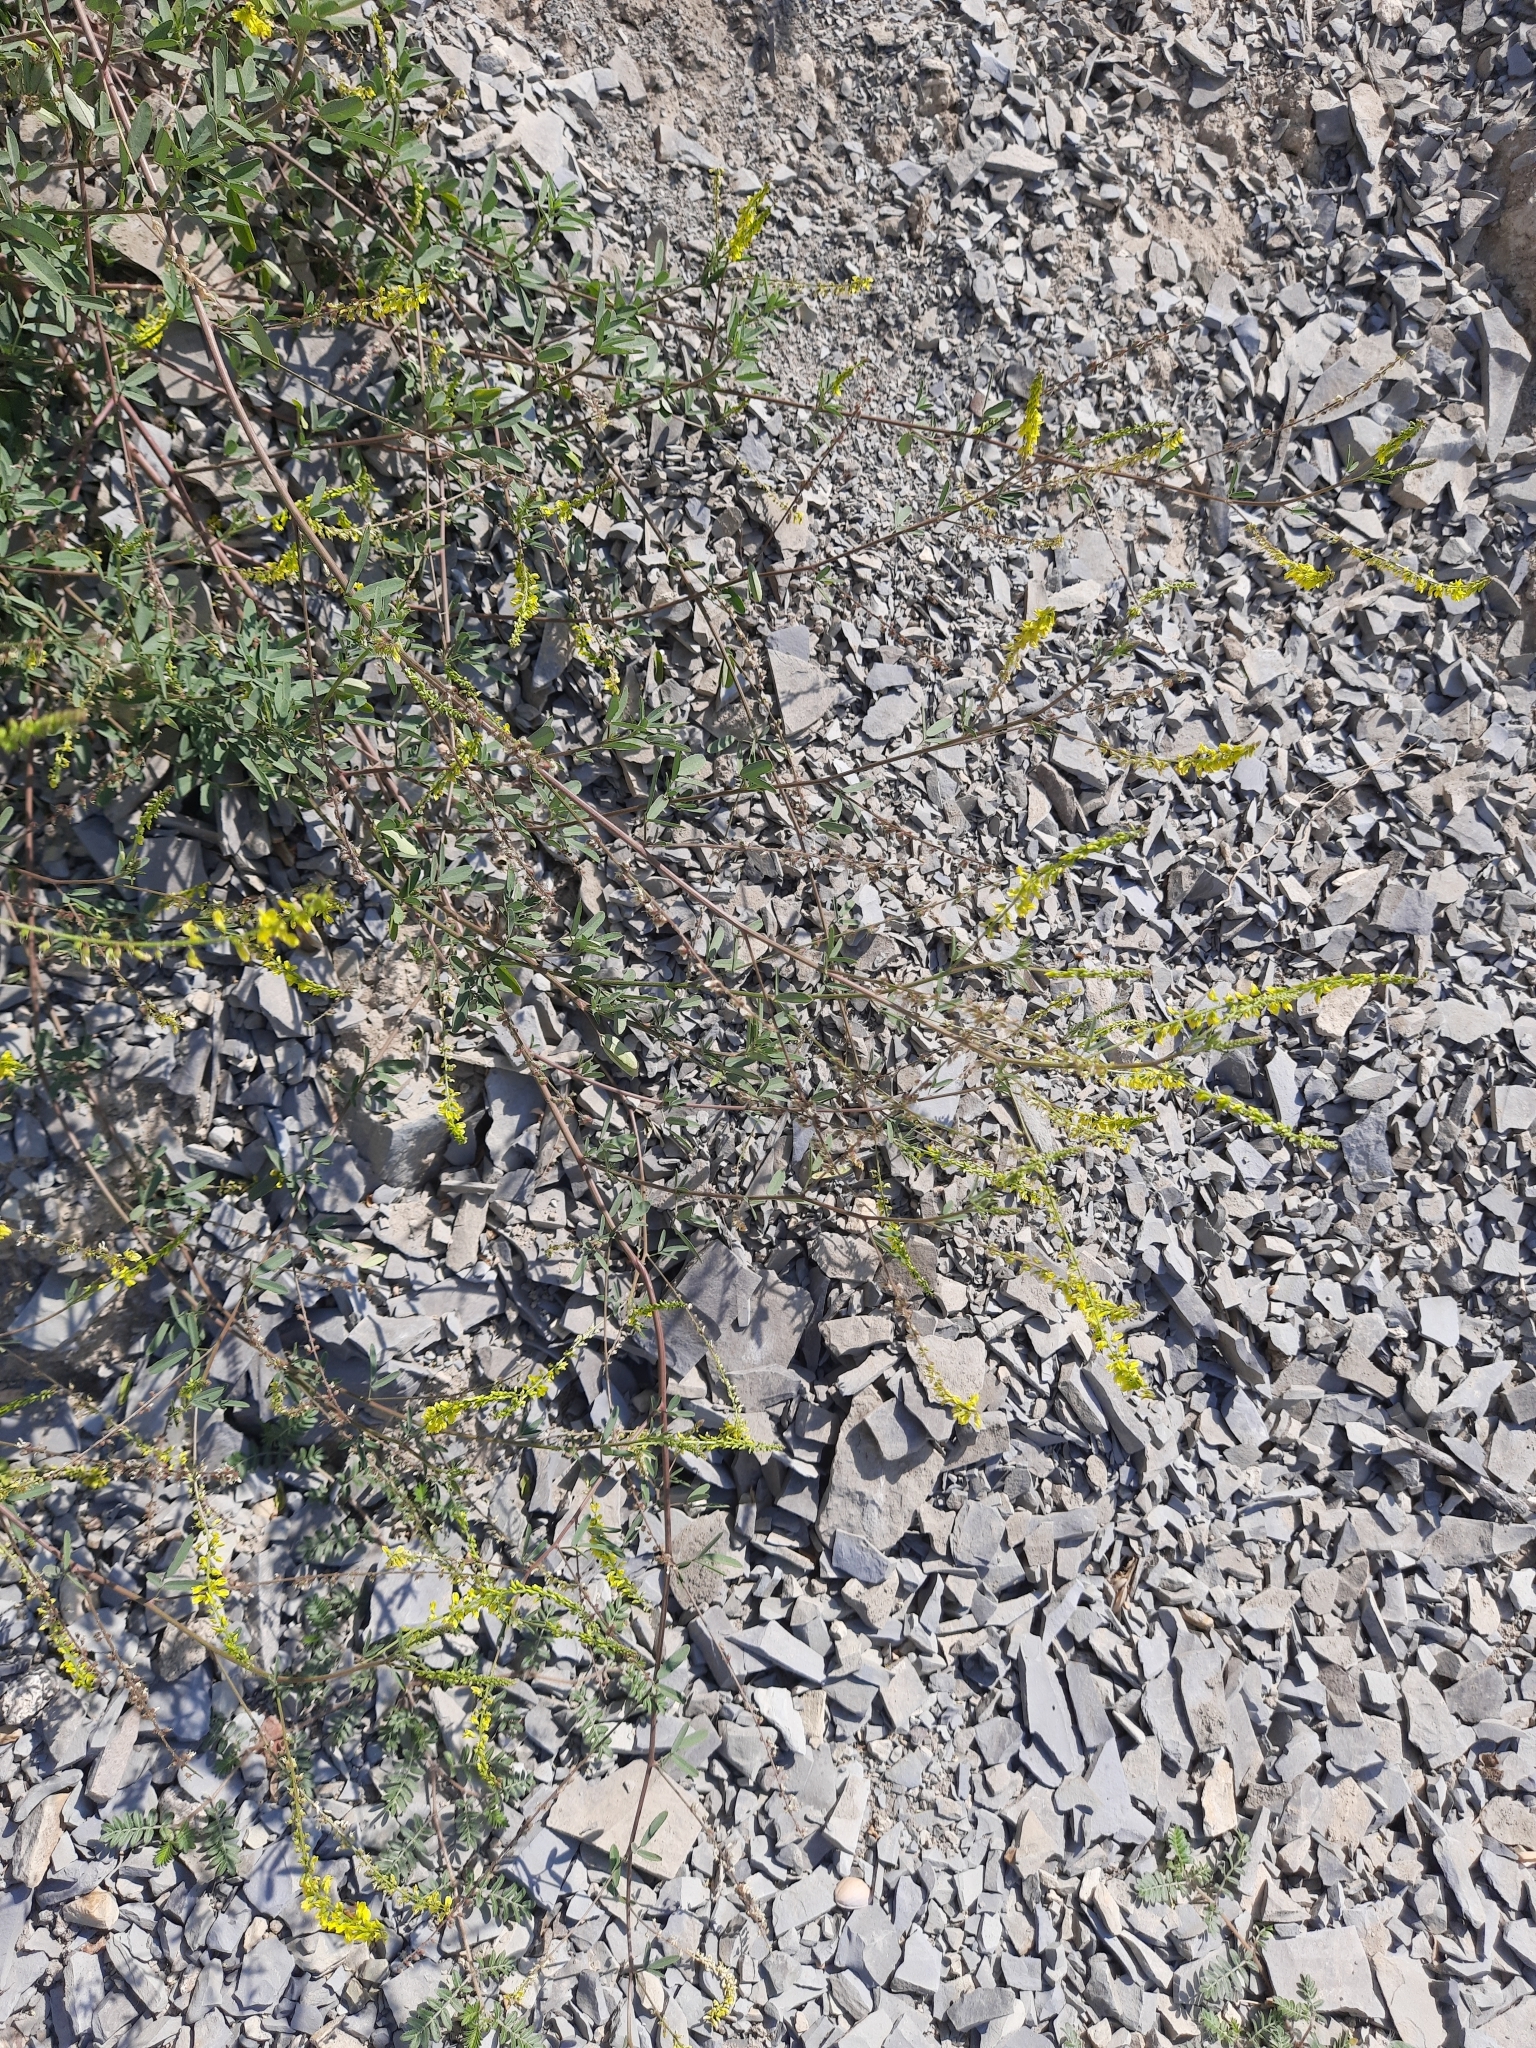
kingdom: Plantae
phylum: Tracheophyta
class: Magnoliopsida
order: Fabales
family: Fabaceae
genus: Melilotus
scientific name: Melilotus officinalis
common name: Sweetclover
